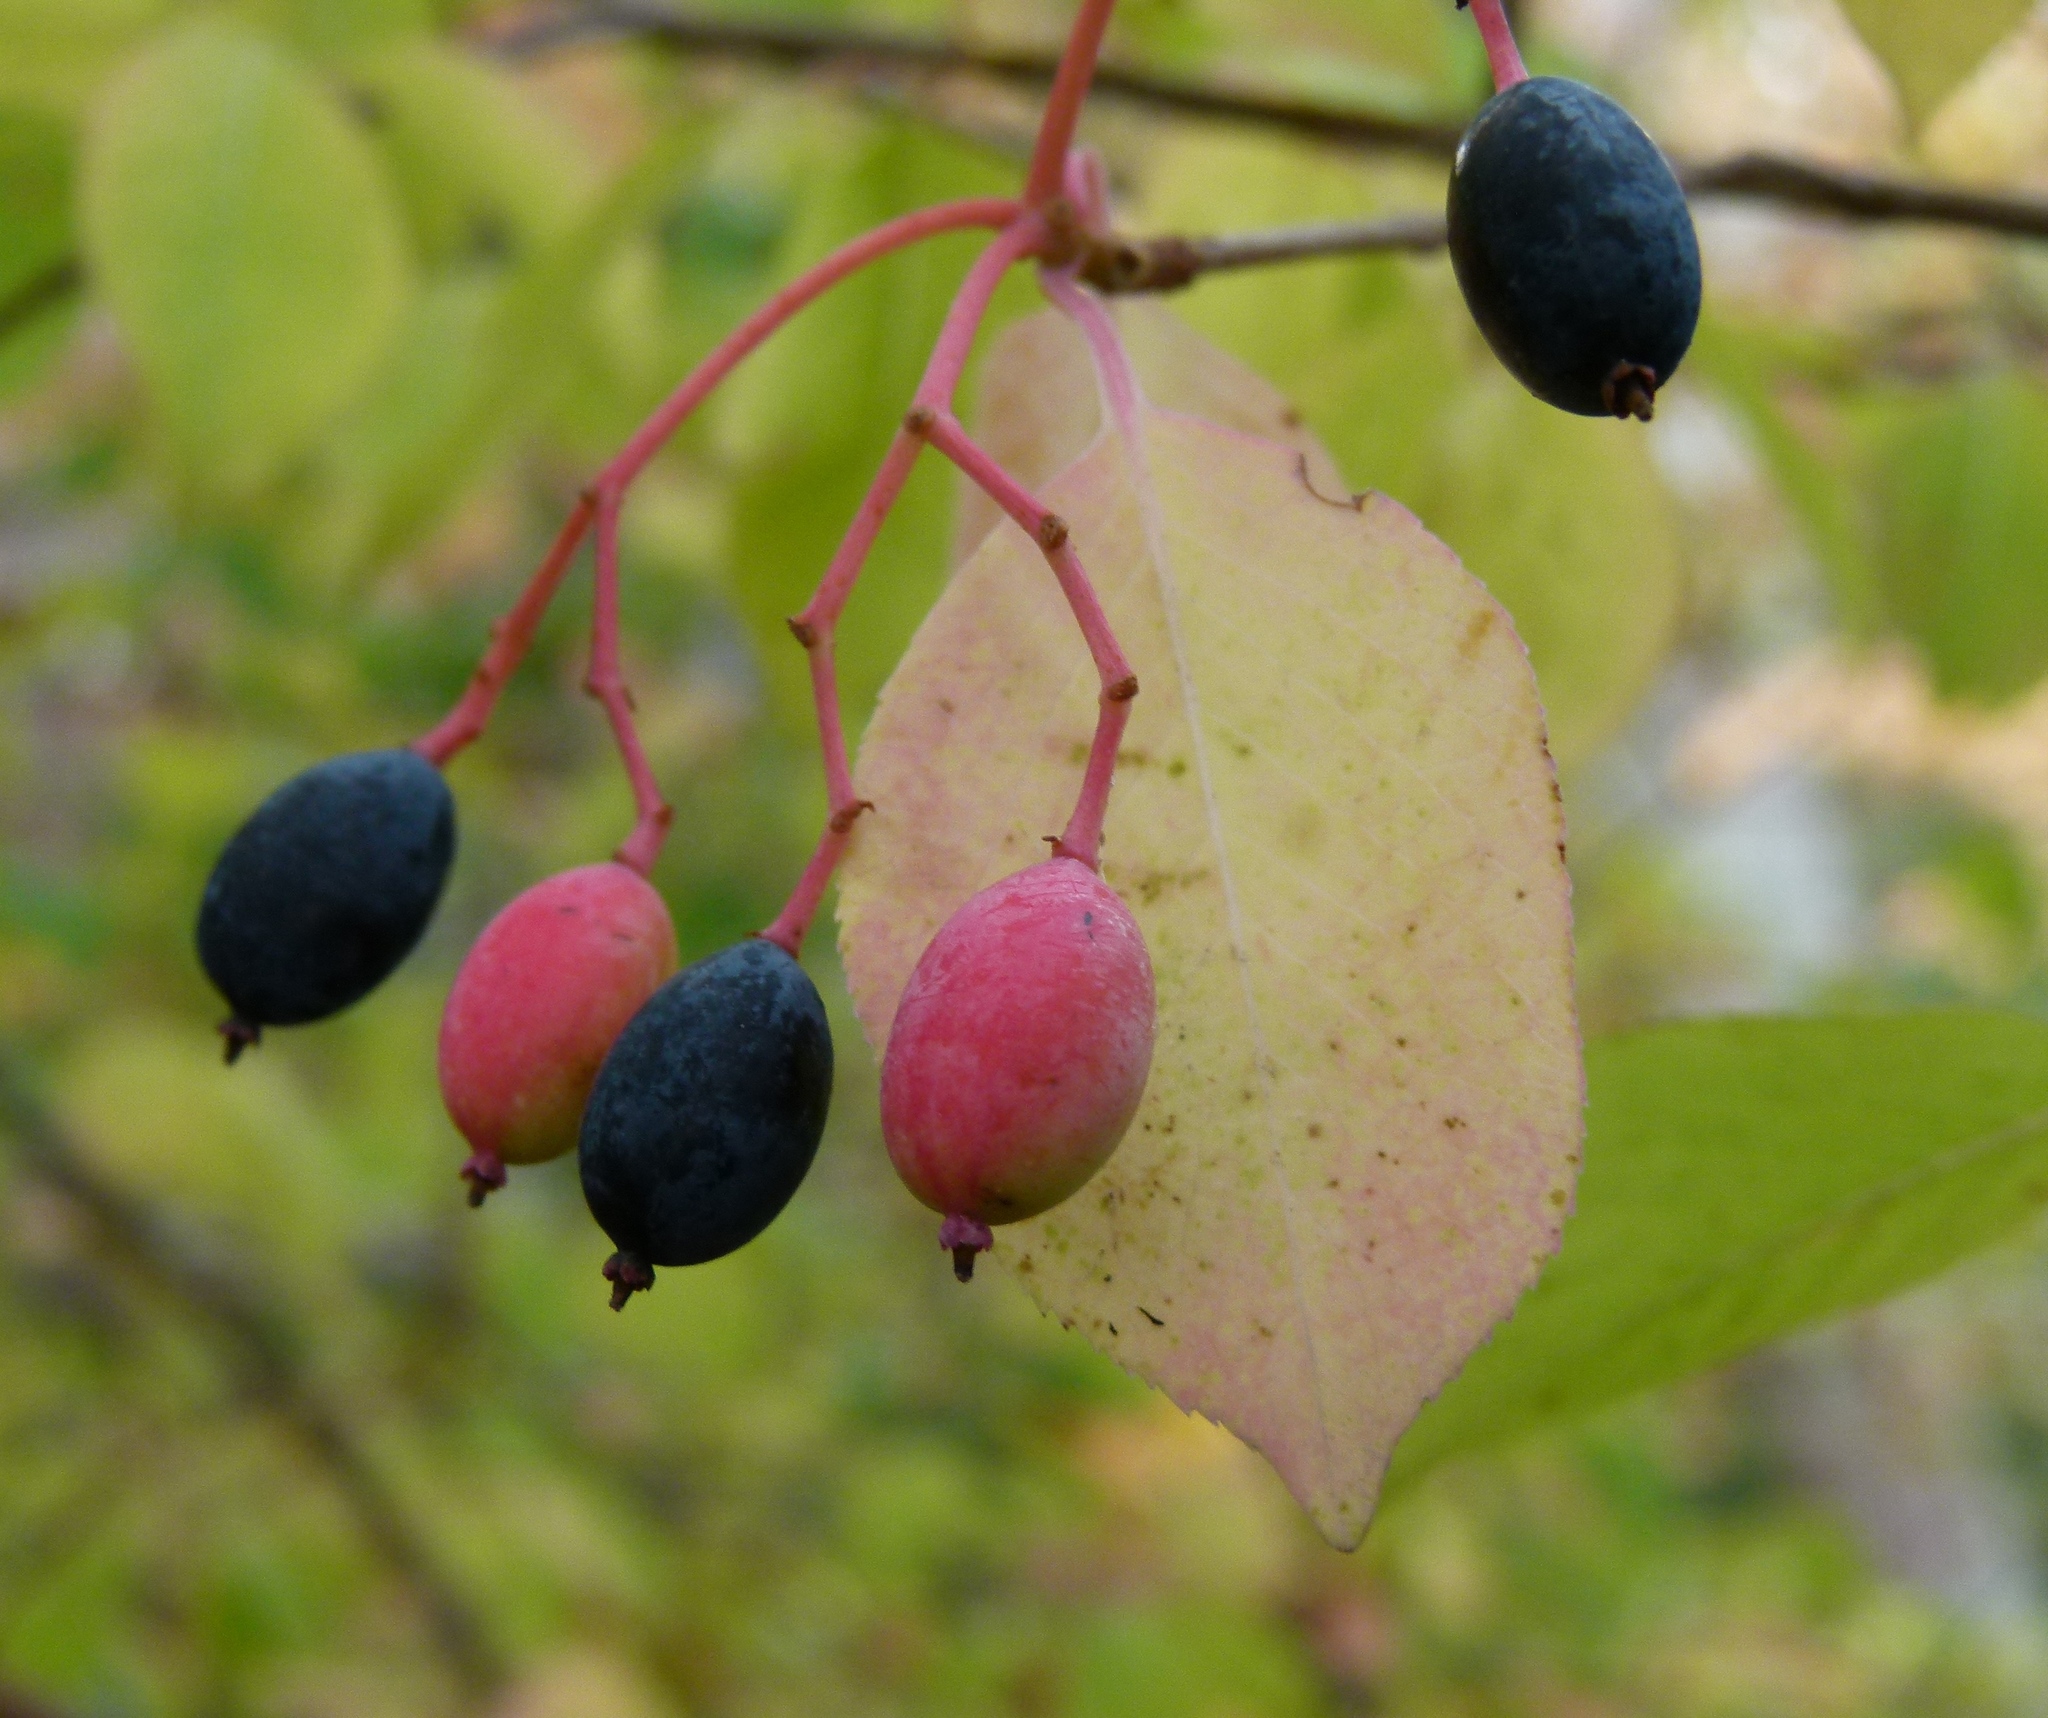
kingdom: Plantae
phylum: Tracheophyta
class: Magnoliopsida
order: Dipsacales
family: Viburnaceae
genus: Viburnum
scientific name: Viburnum prunifolium
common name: Black haw
